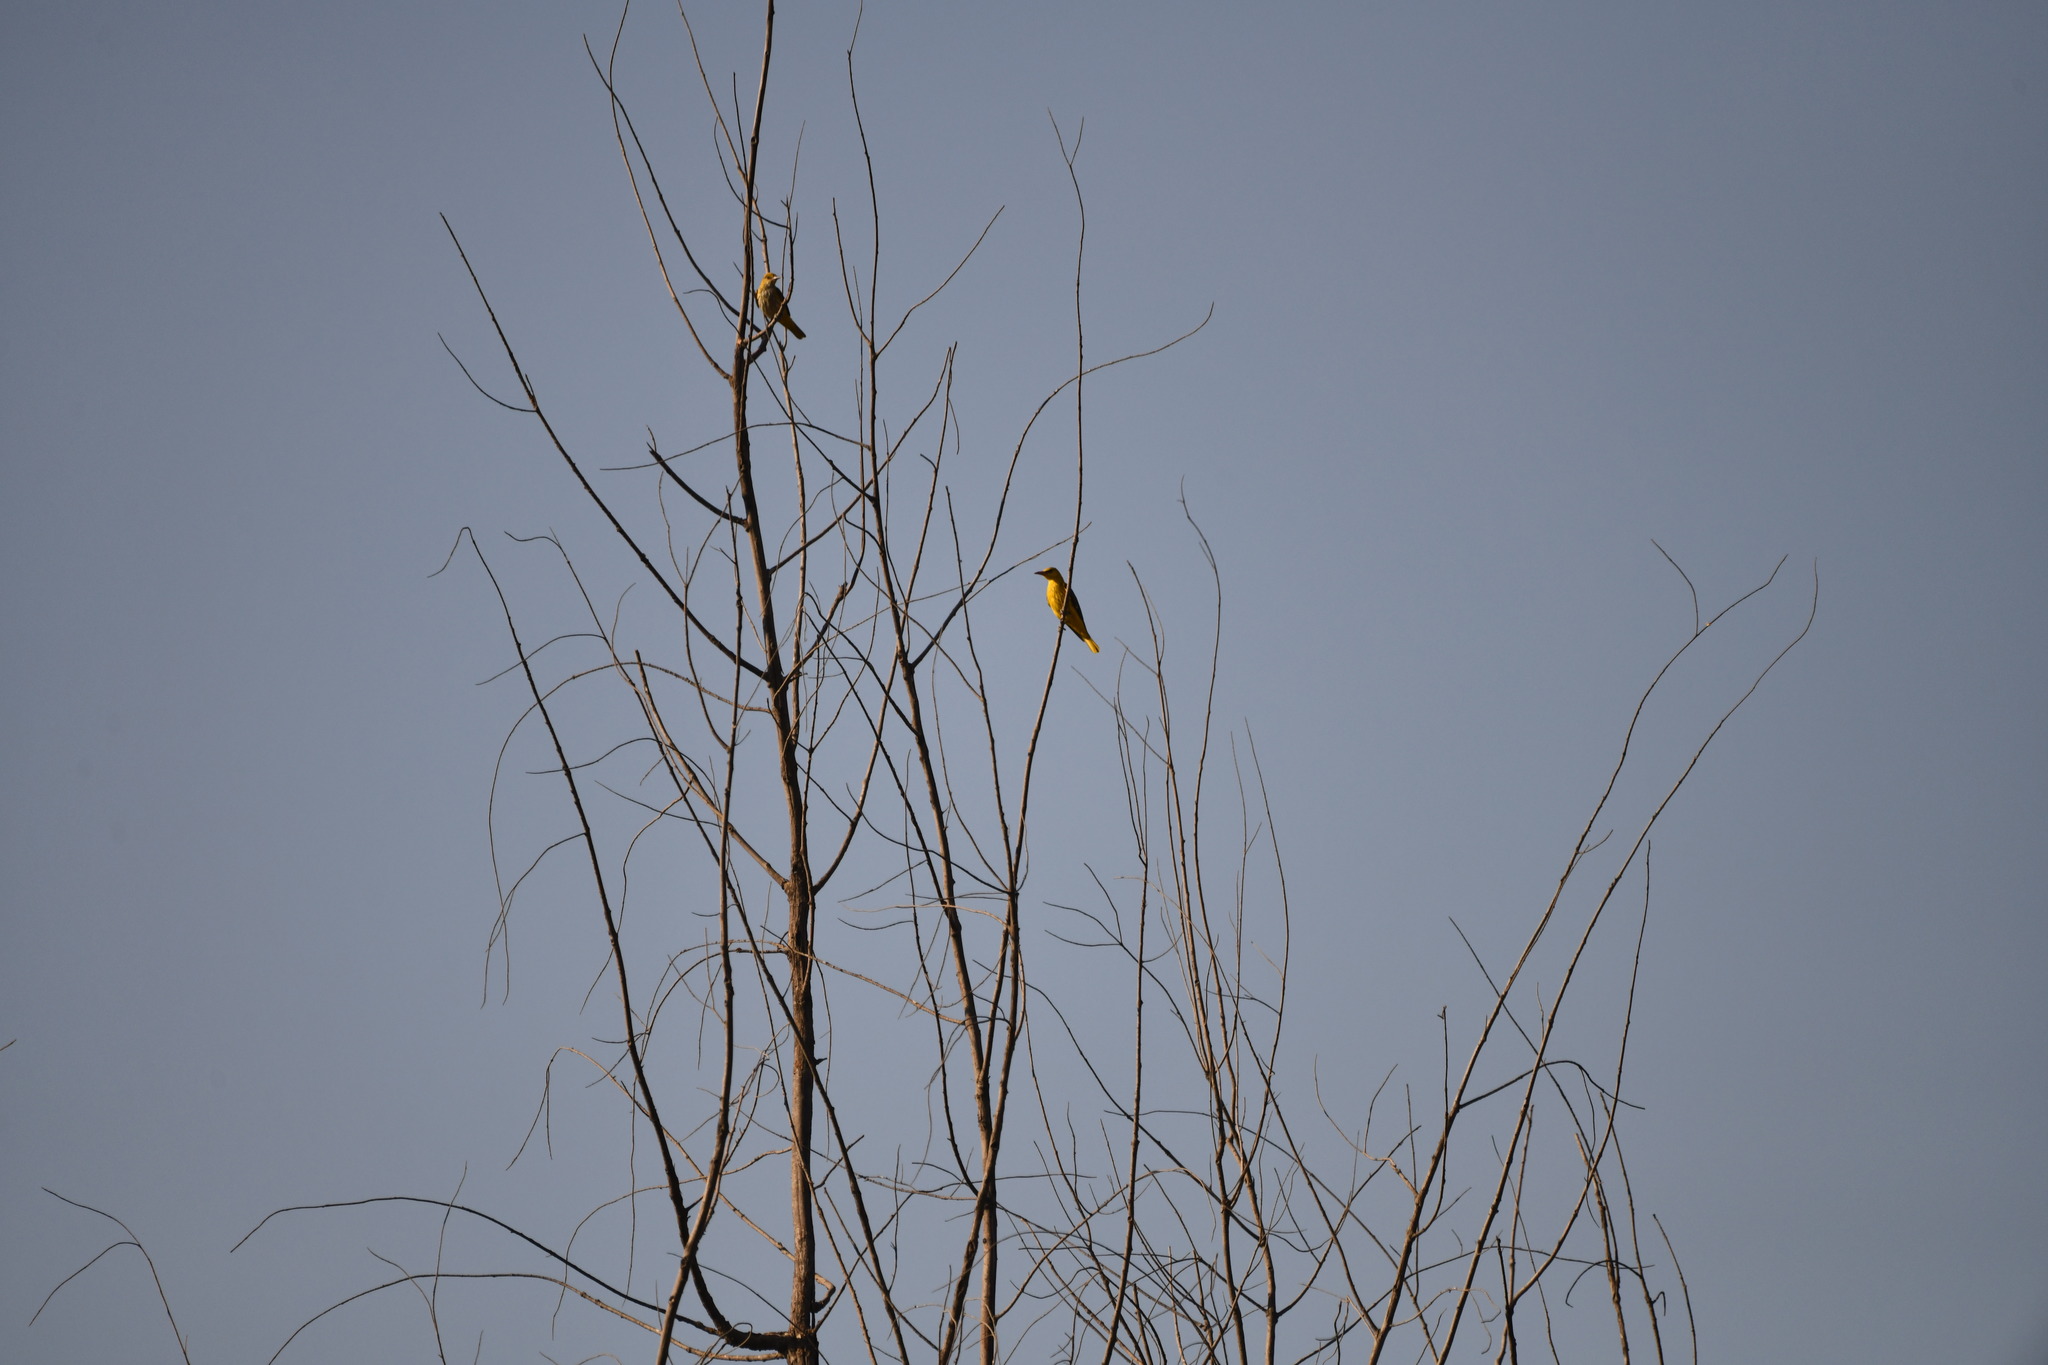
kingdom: Animalia
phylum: Chordata
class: Aves
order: Passeriformes
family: Oriolidae
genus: Oriolus
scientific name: Oriolus kundoo
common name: Indian golden oriole
